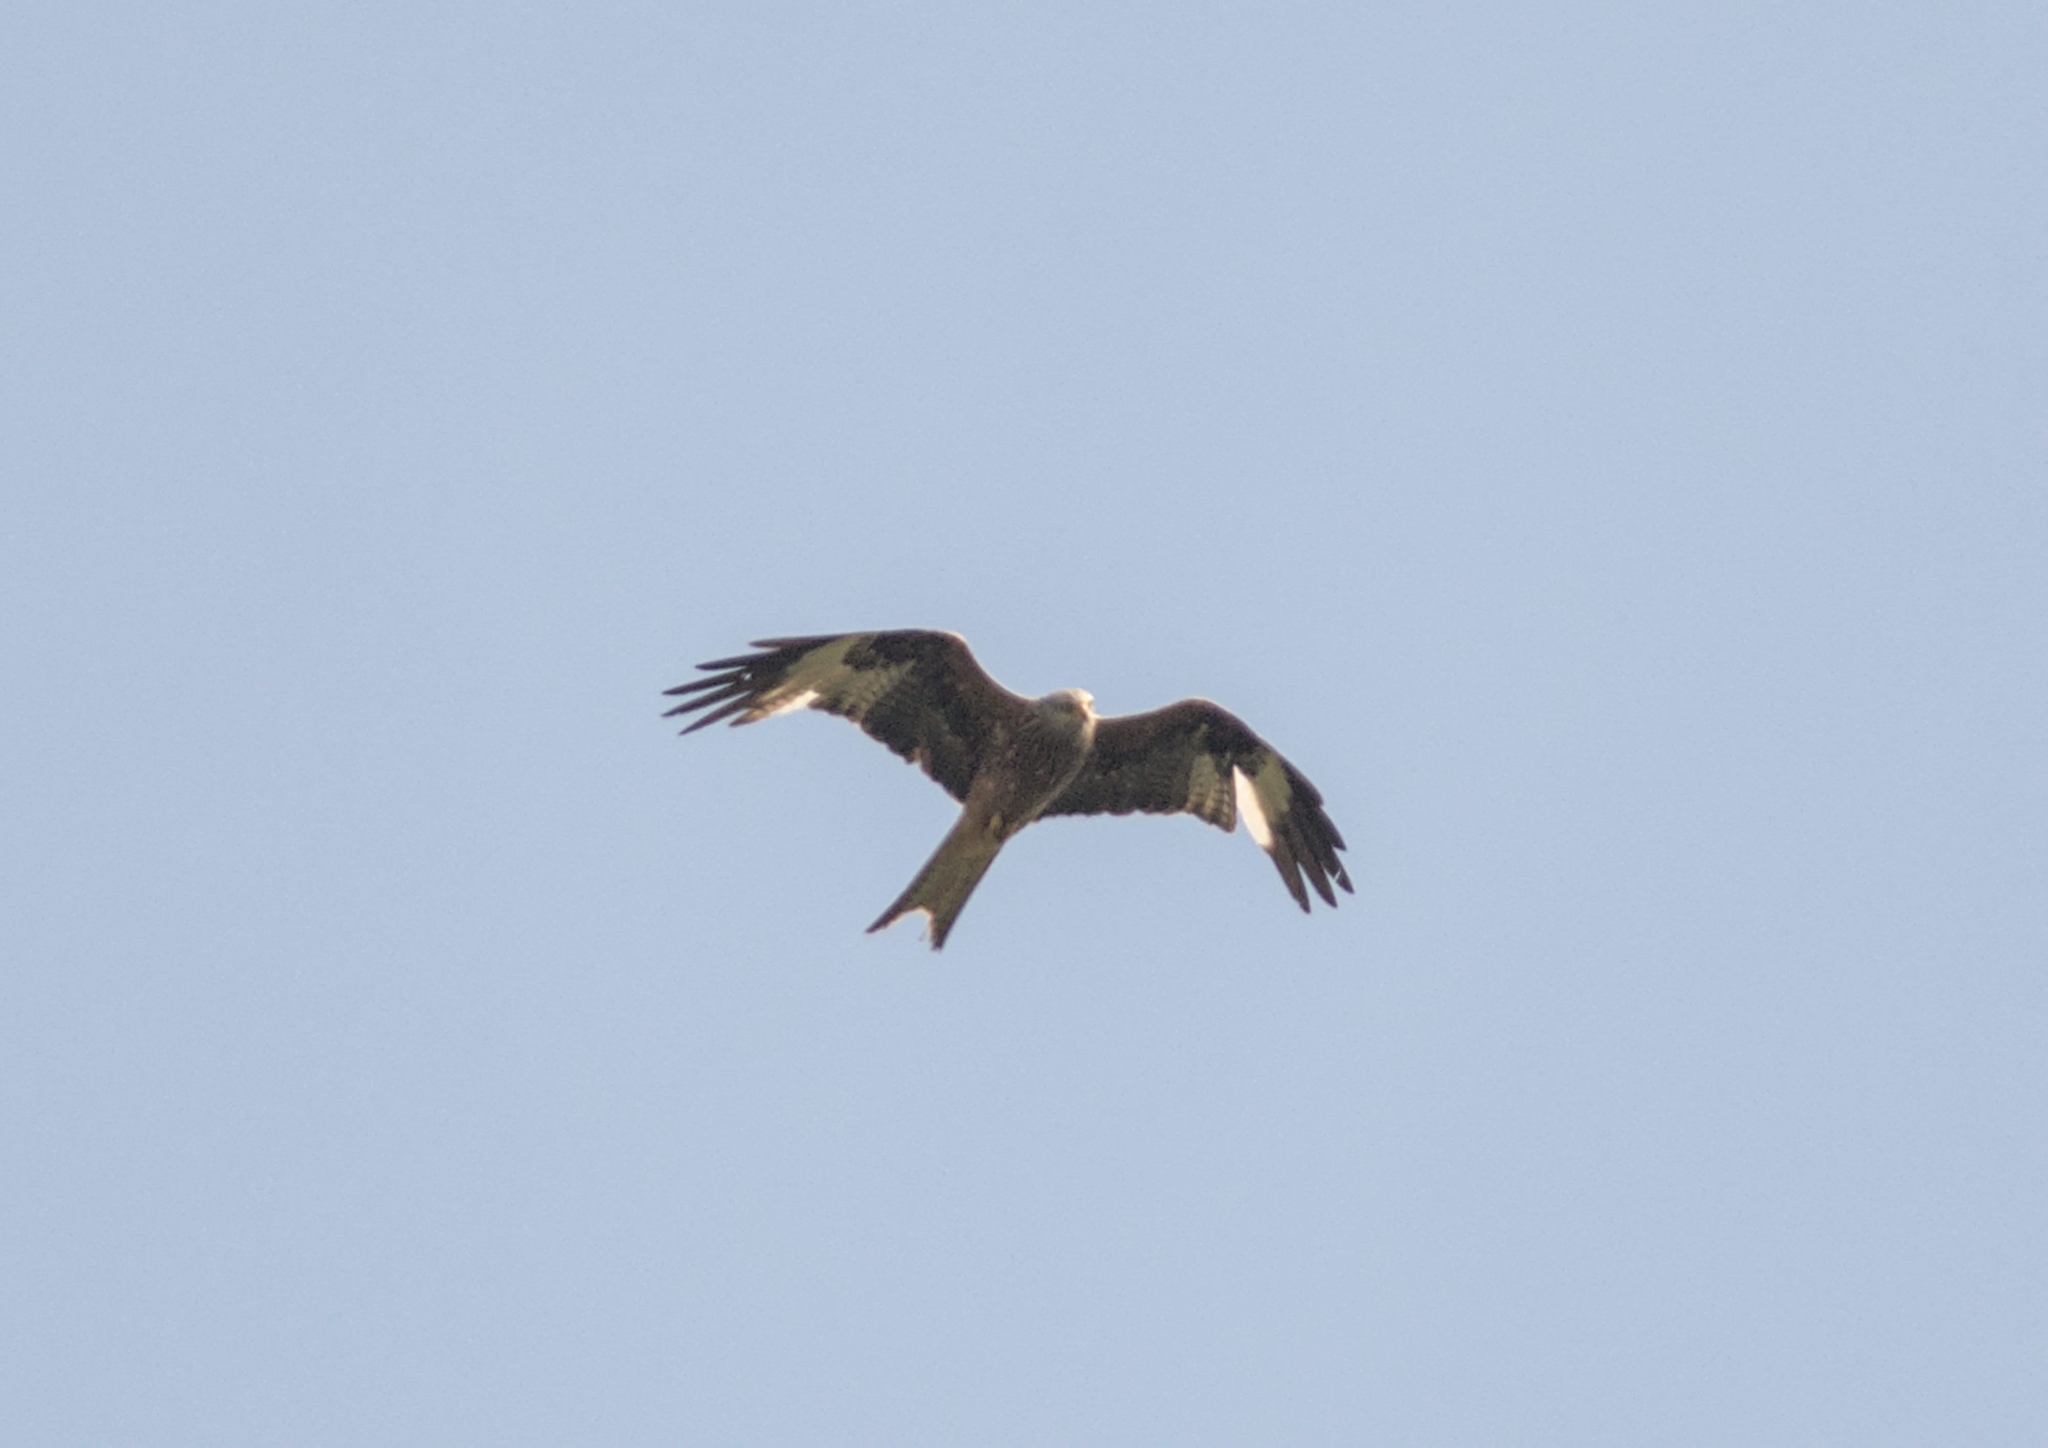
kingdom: Animalia
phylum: Chordata
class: Aves
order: Accipitriformes
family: Accipitridae
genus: Milvus
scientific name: Milvus milvus
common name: Red kite
